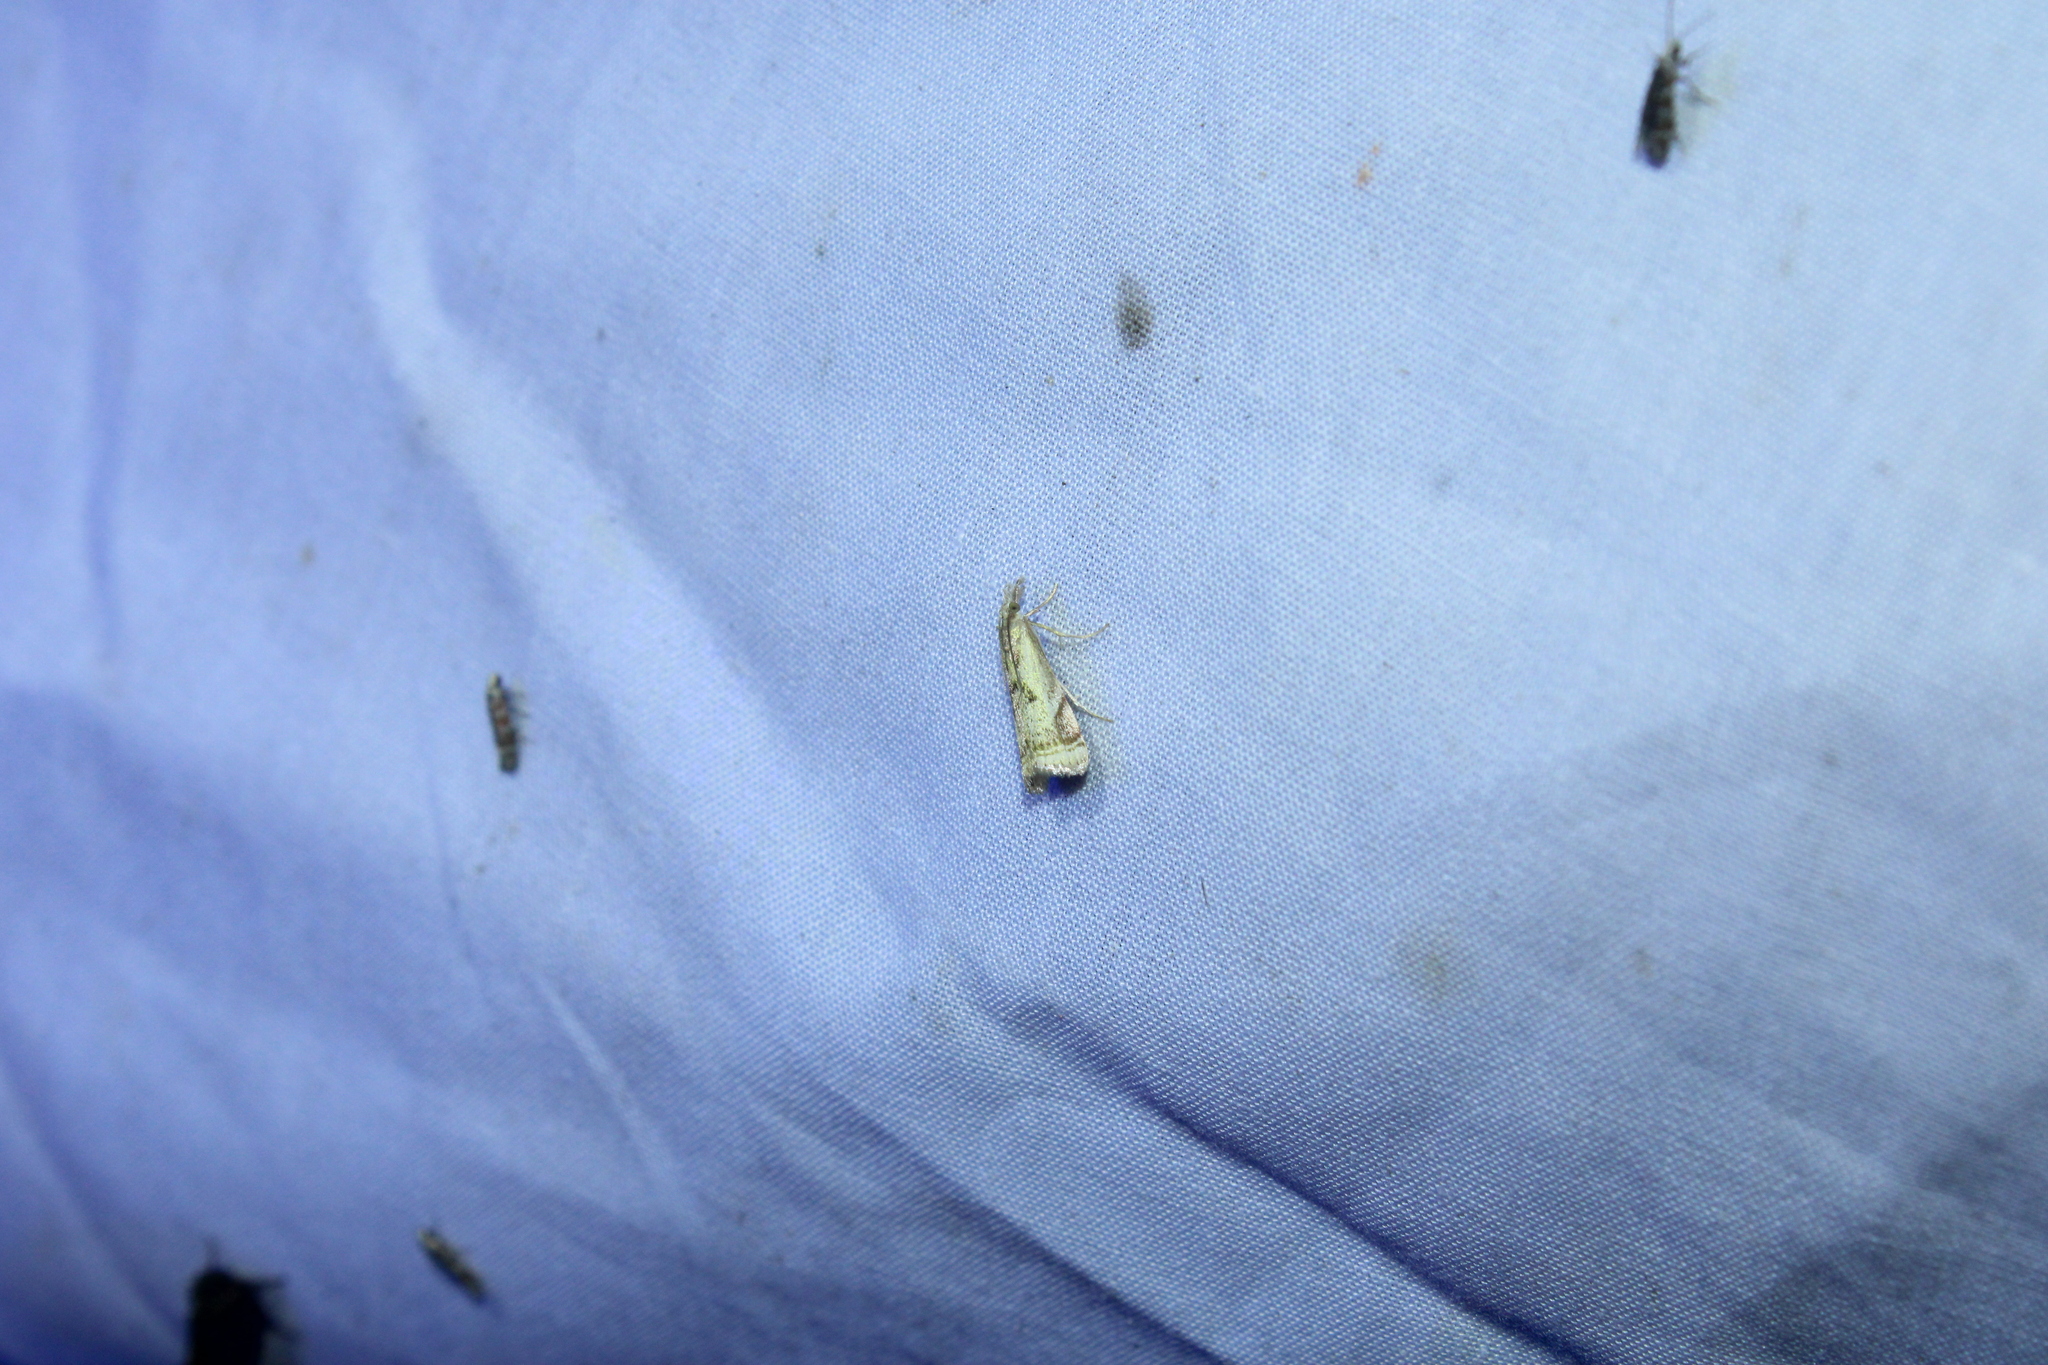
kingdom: Animalia
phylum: Arthropoda
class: Insecta
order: Lepidoptera
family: Crambidae
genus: Microcrambus
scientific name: Microcrambus elegans
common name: Elegant grass-veneer
